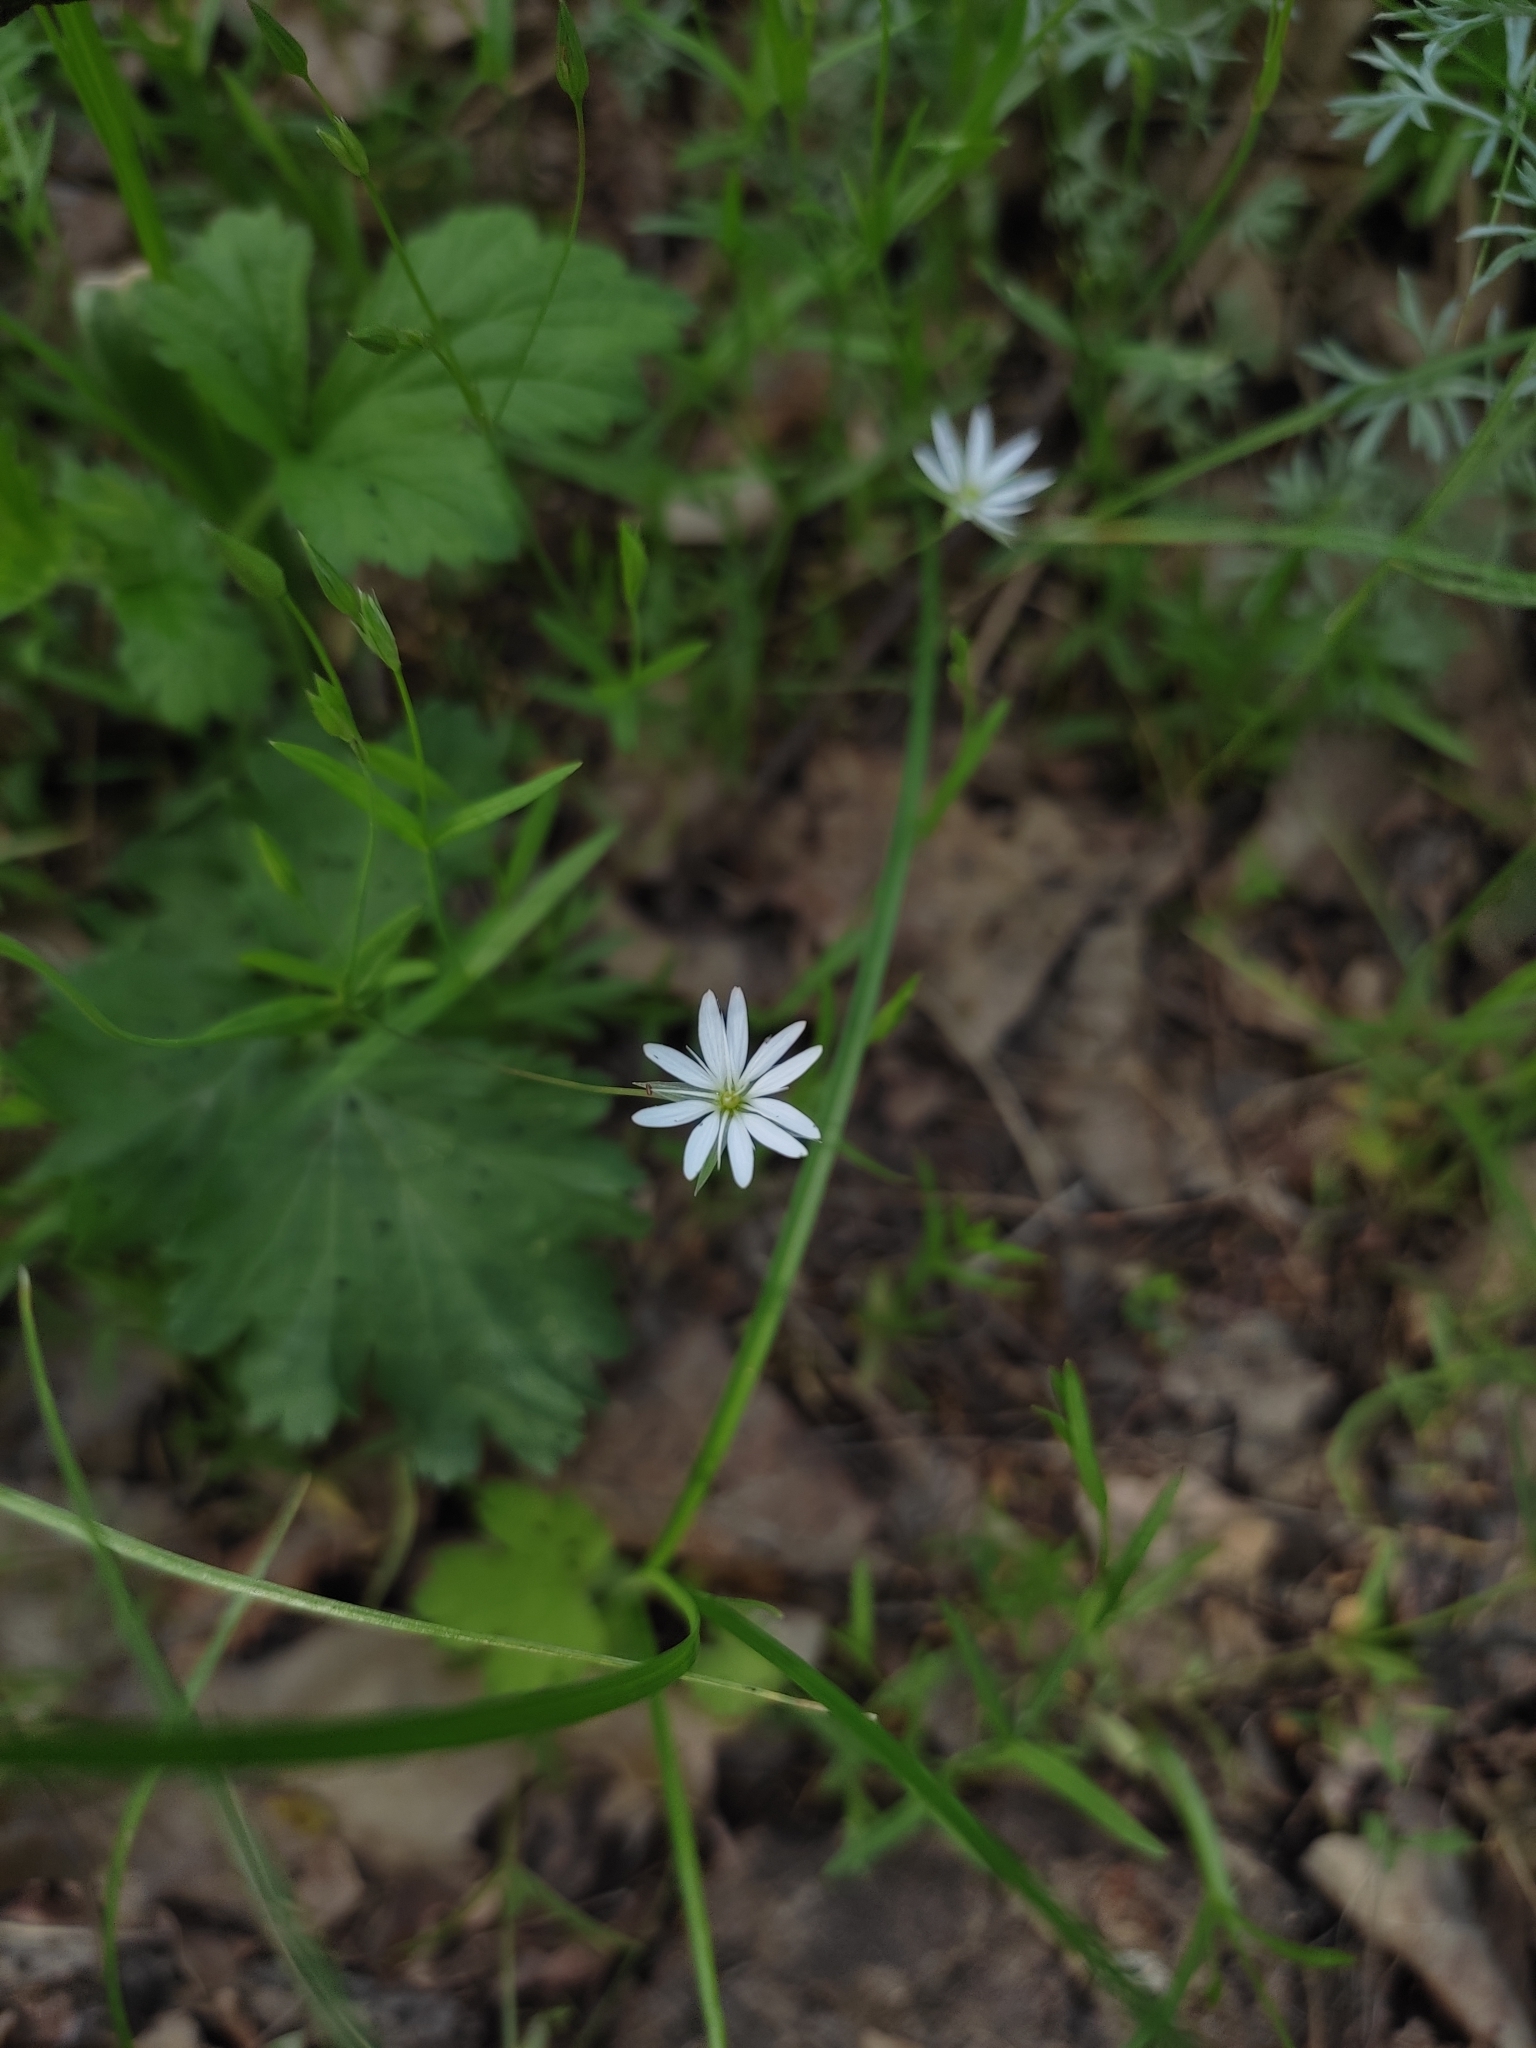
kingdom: Plantae
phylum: Tracheophyta
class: Magnoliopsida
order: Caryophyllales
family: Caryophyllaceae
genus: Stellaria
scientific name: Stellaria graminea
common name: Grass-like starwort
